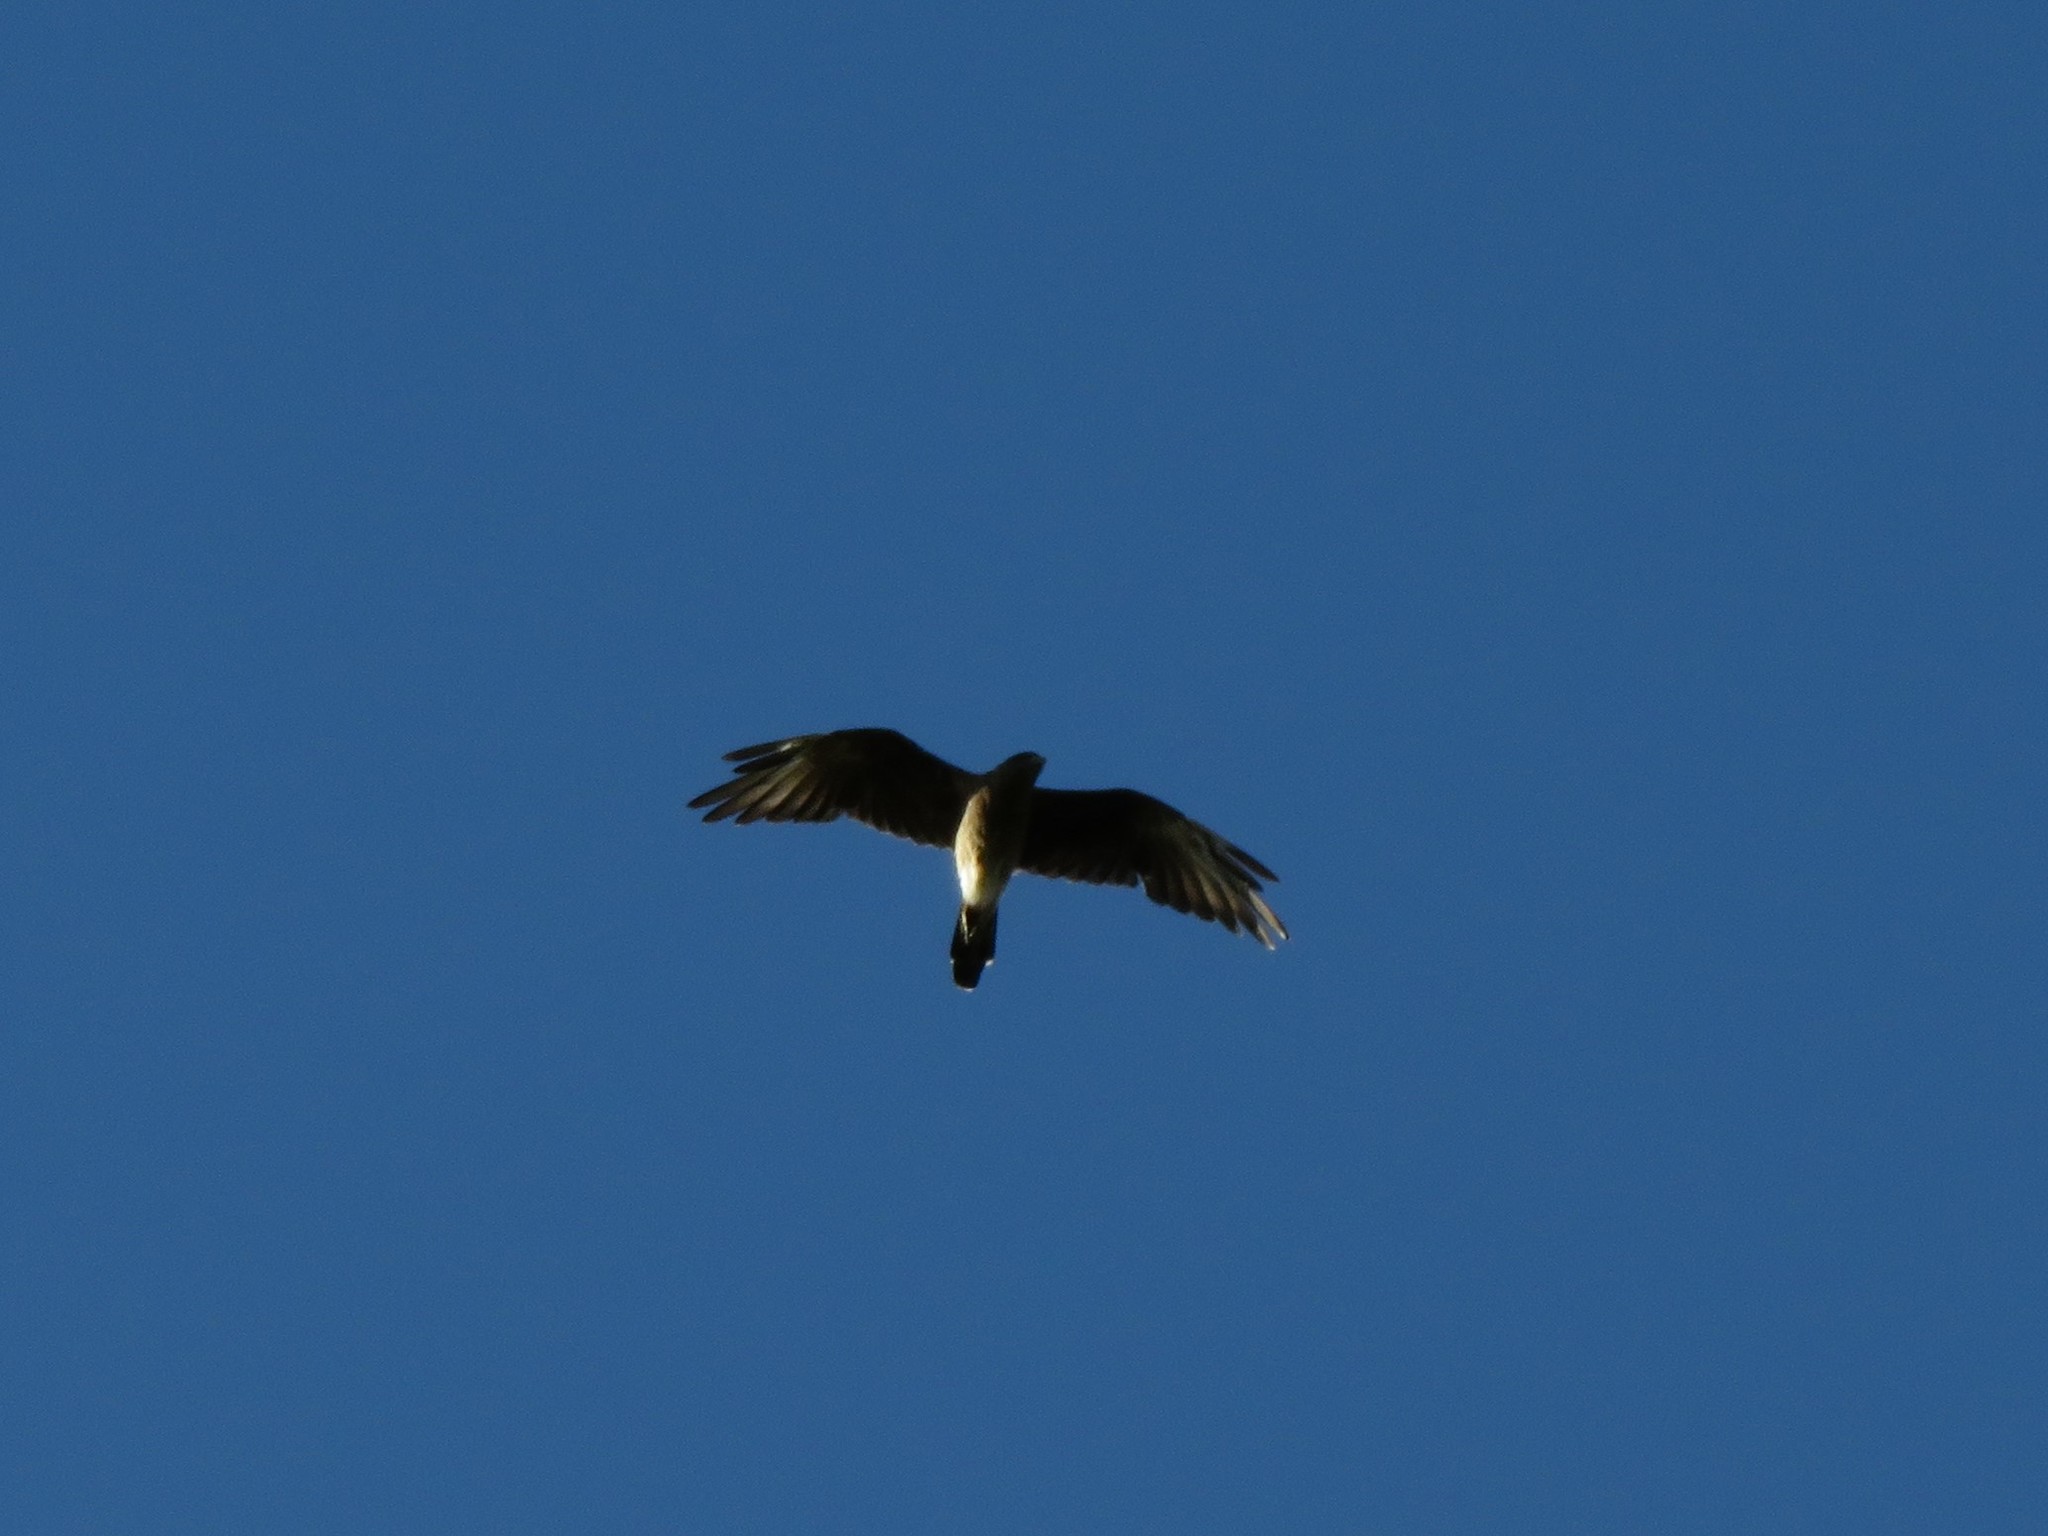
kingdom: Animalia
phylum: Chordata
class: Aves
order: Falconiformes
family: Falconidae
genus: Daptrius
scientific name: Daptrius
